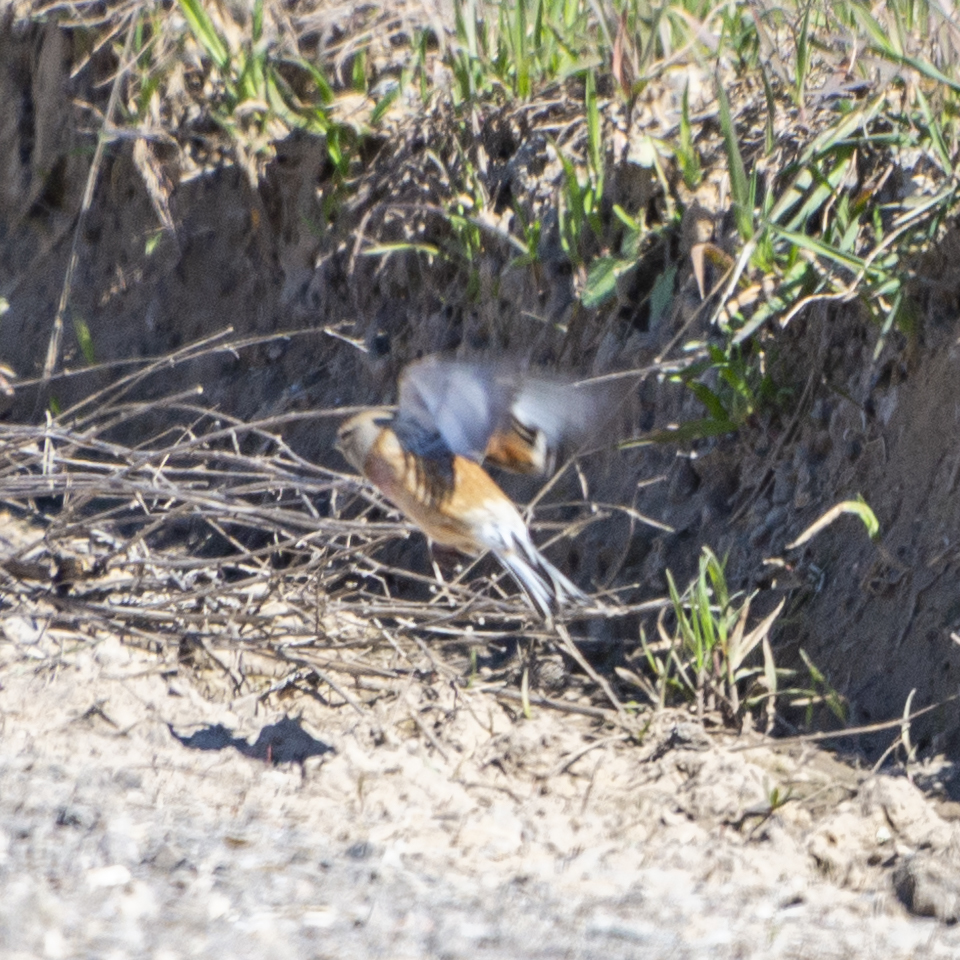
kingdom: Animalia
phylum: Chordata
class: Aves
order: Passeriformes
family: Fringillidae
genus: Linaria
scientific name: Linaria cannabina
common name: Common linnet
